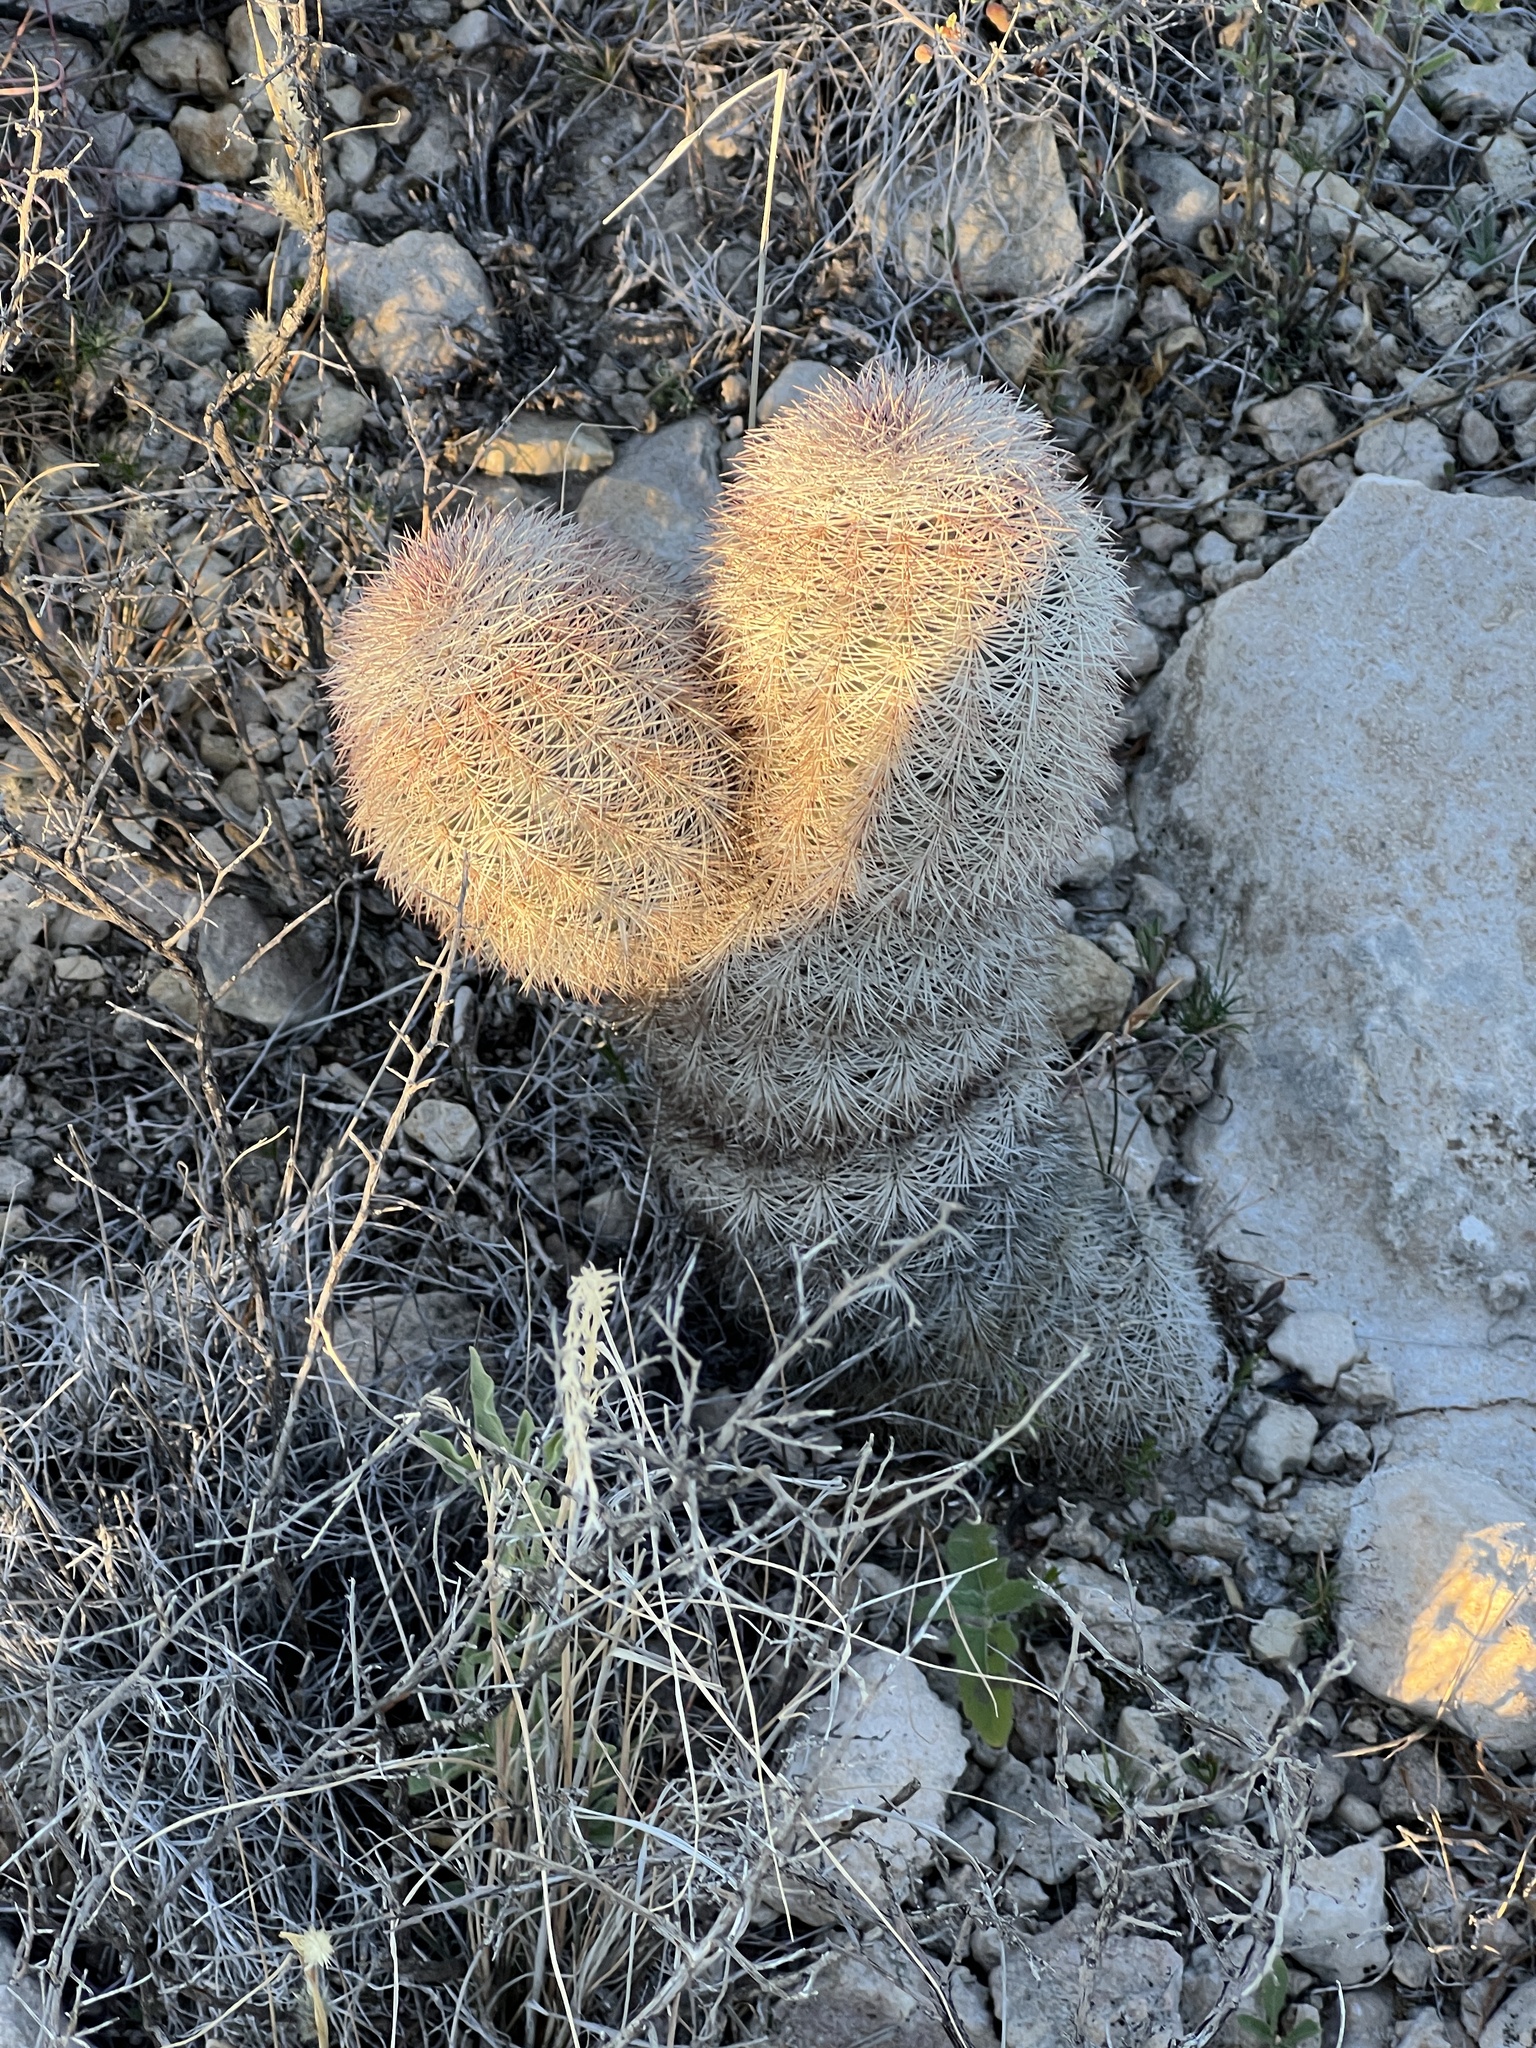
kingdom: Plantae
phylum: Tracheophyta
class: Magnoliopsida
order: Caryophyllales
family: Cactaceae
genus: Echinocereus
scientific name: Echinocereus dasyacanthus
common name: Spiny hedgehog cactus
